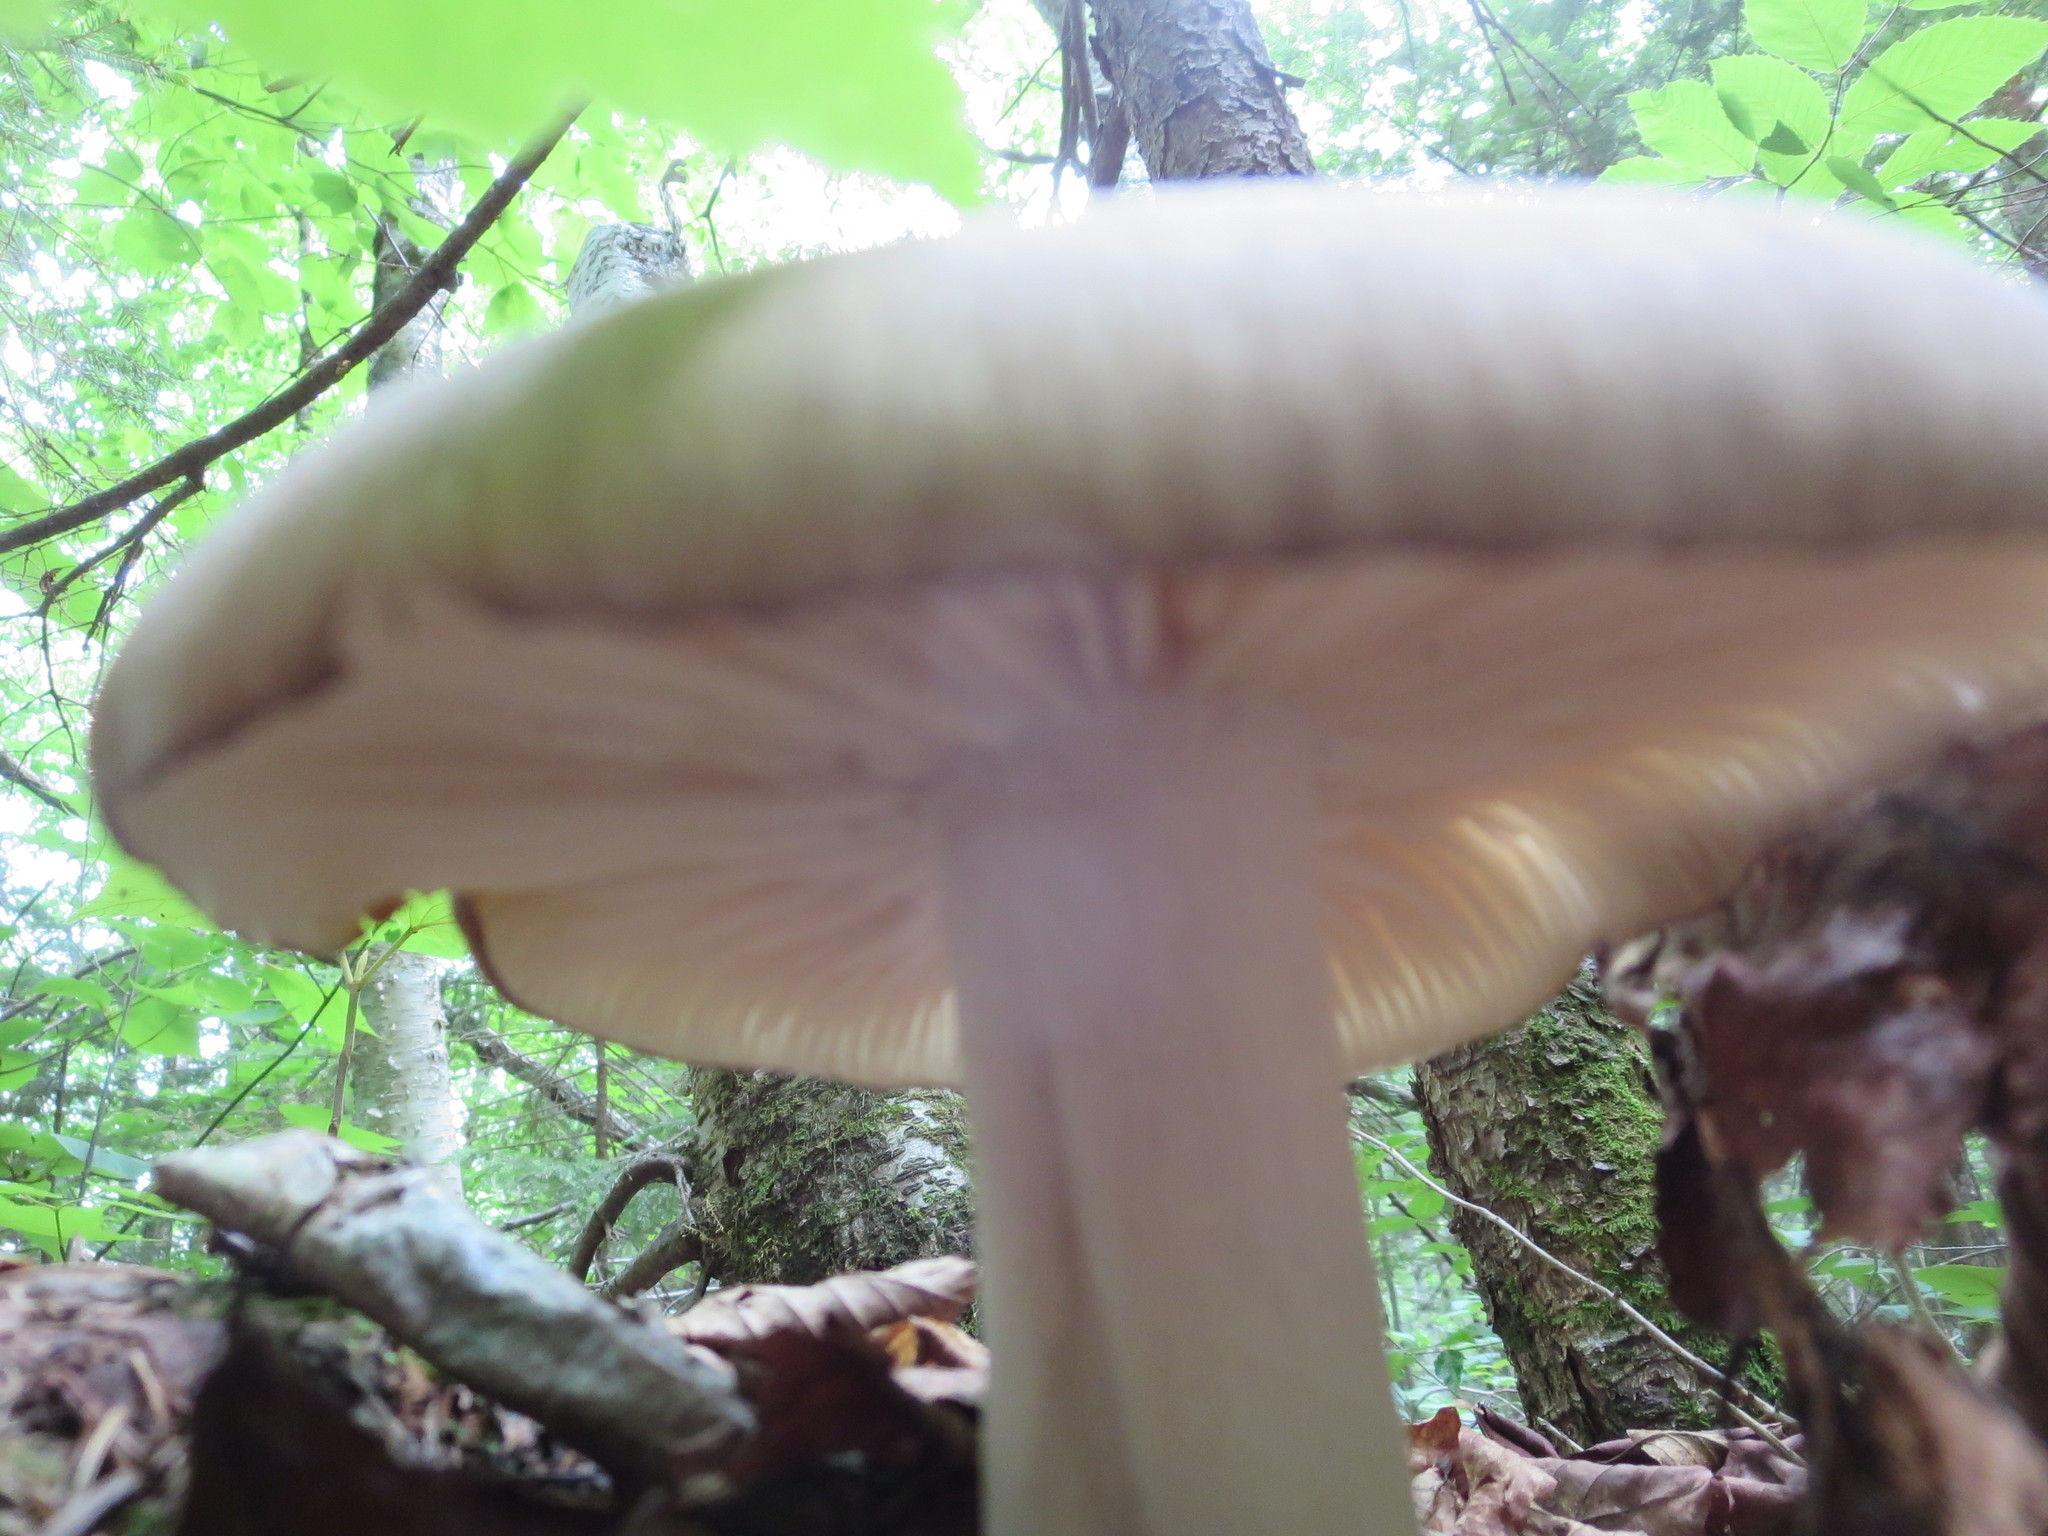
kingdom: Fungi
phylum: Basidiomycota
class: Agaricomycetes
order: Agaricales
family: Tricholomataceae
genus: Megacollybia
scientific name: Megacollybia rodmanii
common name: Eastern american platterful mushroom
